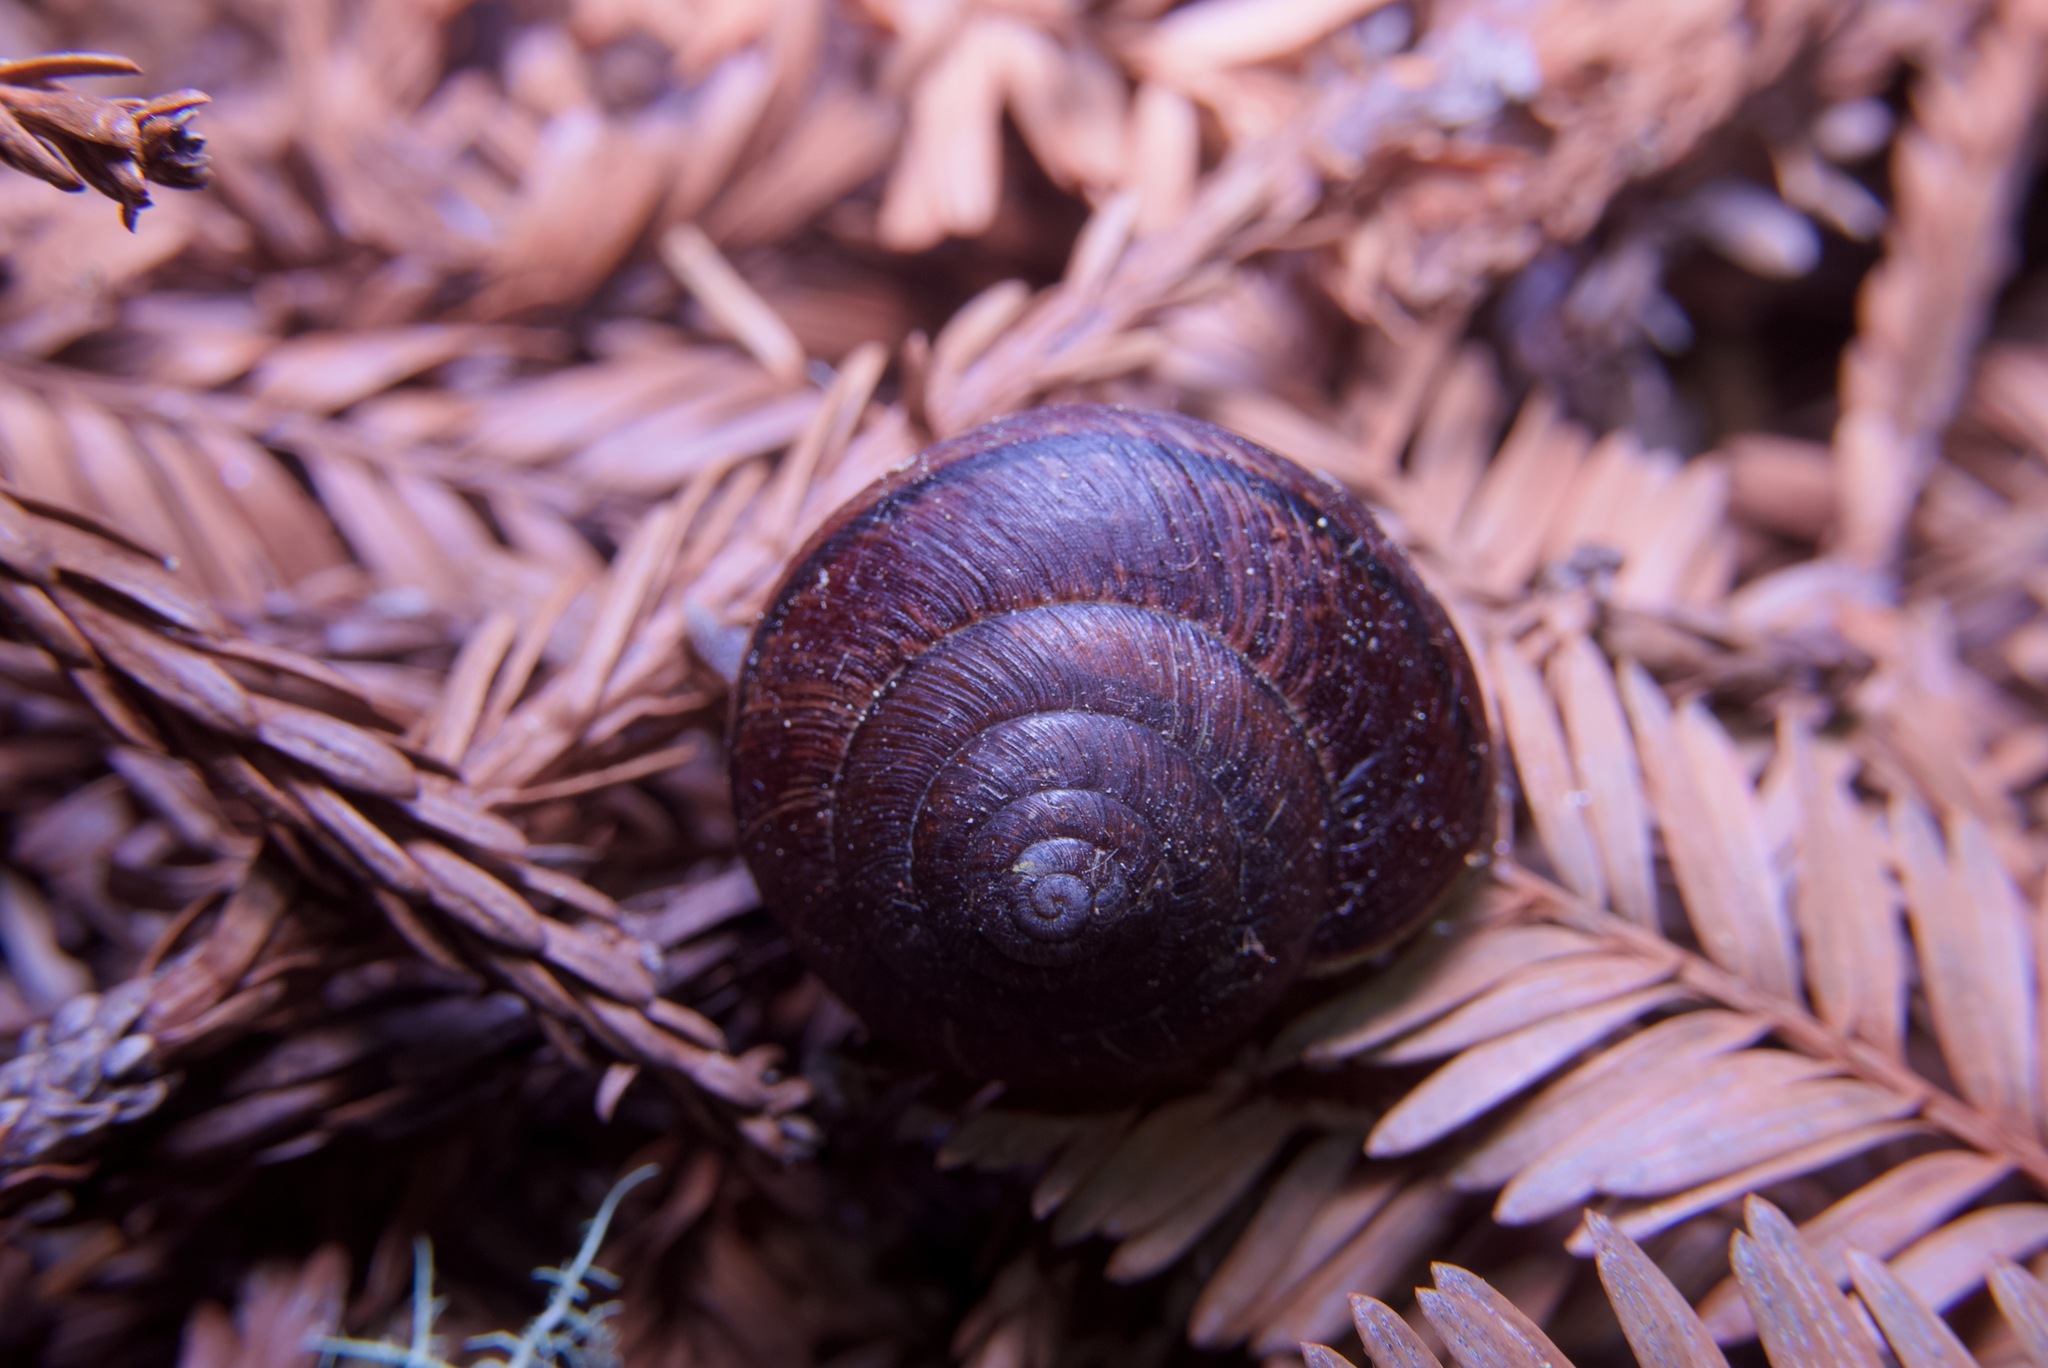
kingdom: Animalia
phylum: Mollusca
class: Gastropoda
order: Stylommatophora
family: Xanthonychidae
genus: Helminthoglypta
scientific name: Helminthoglypta arrosa
